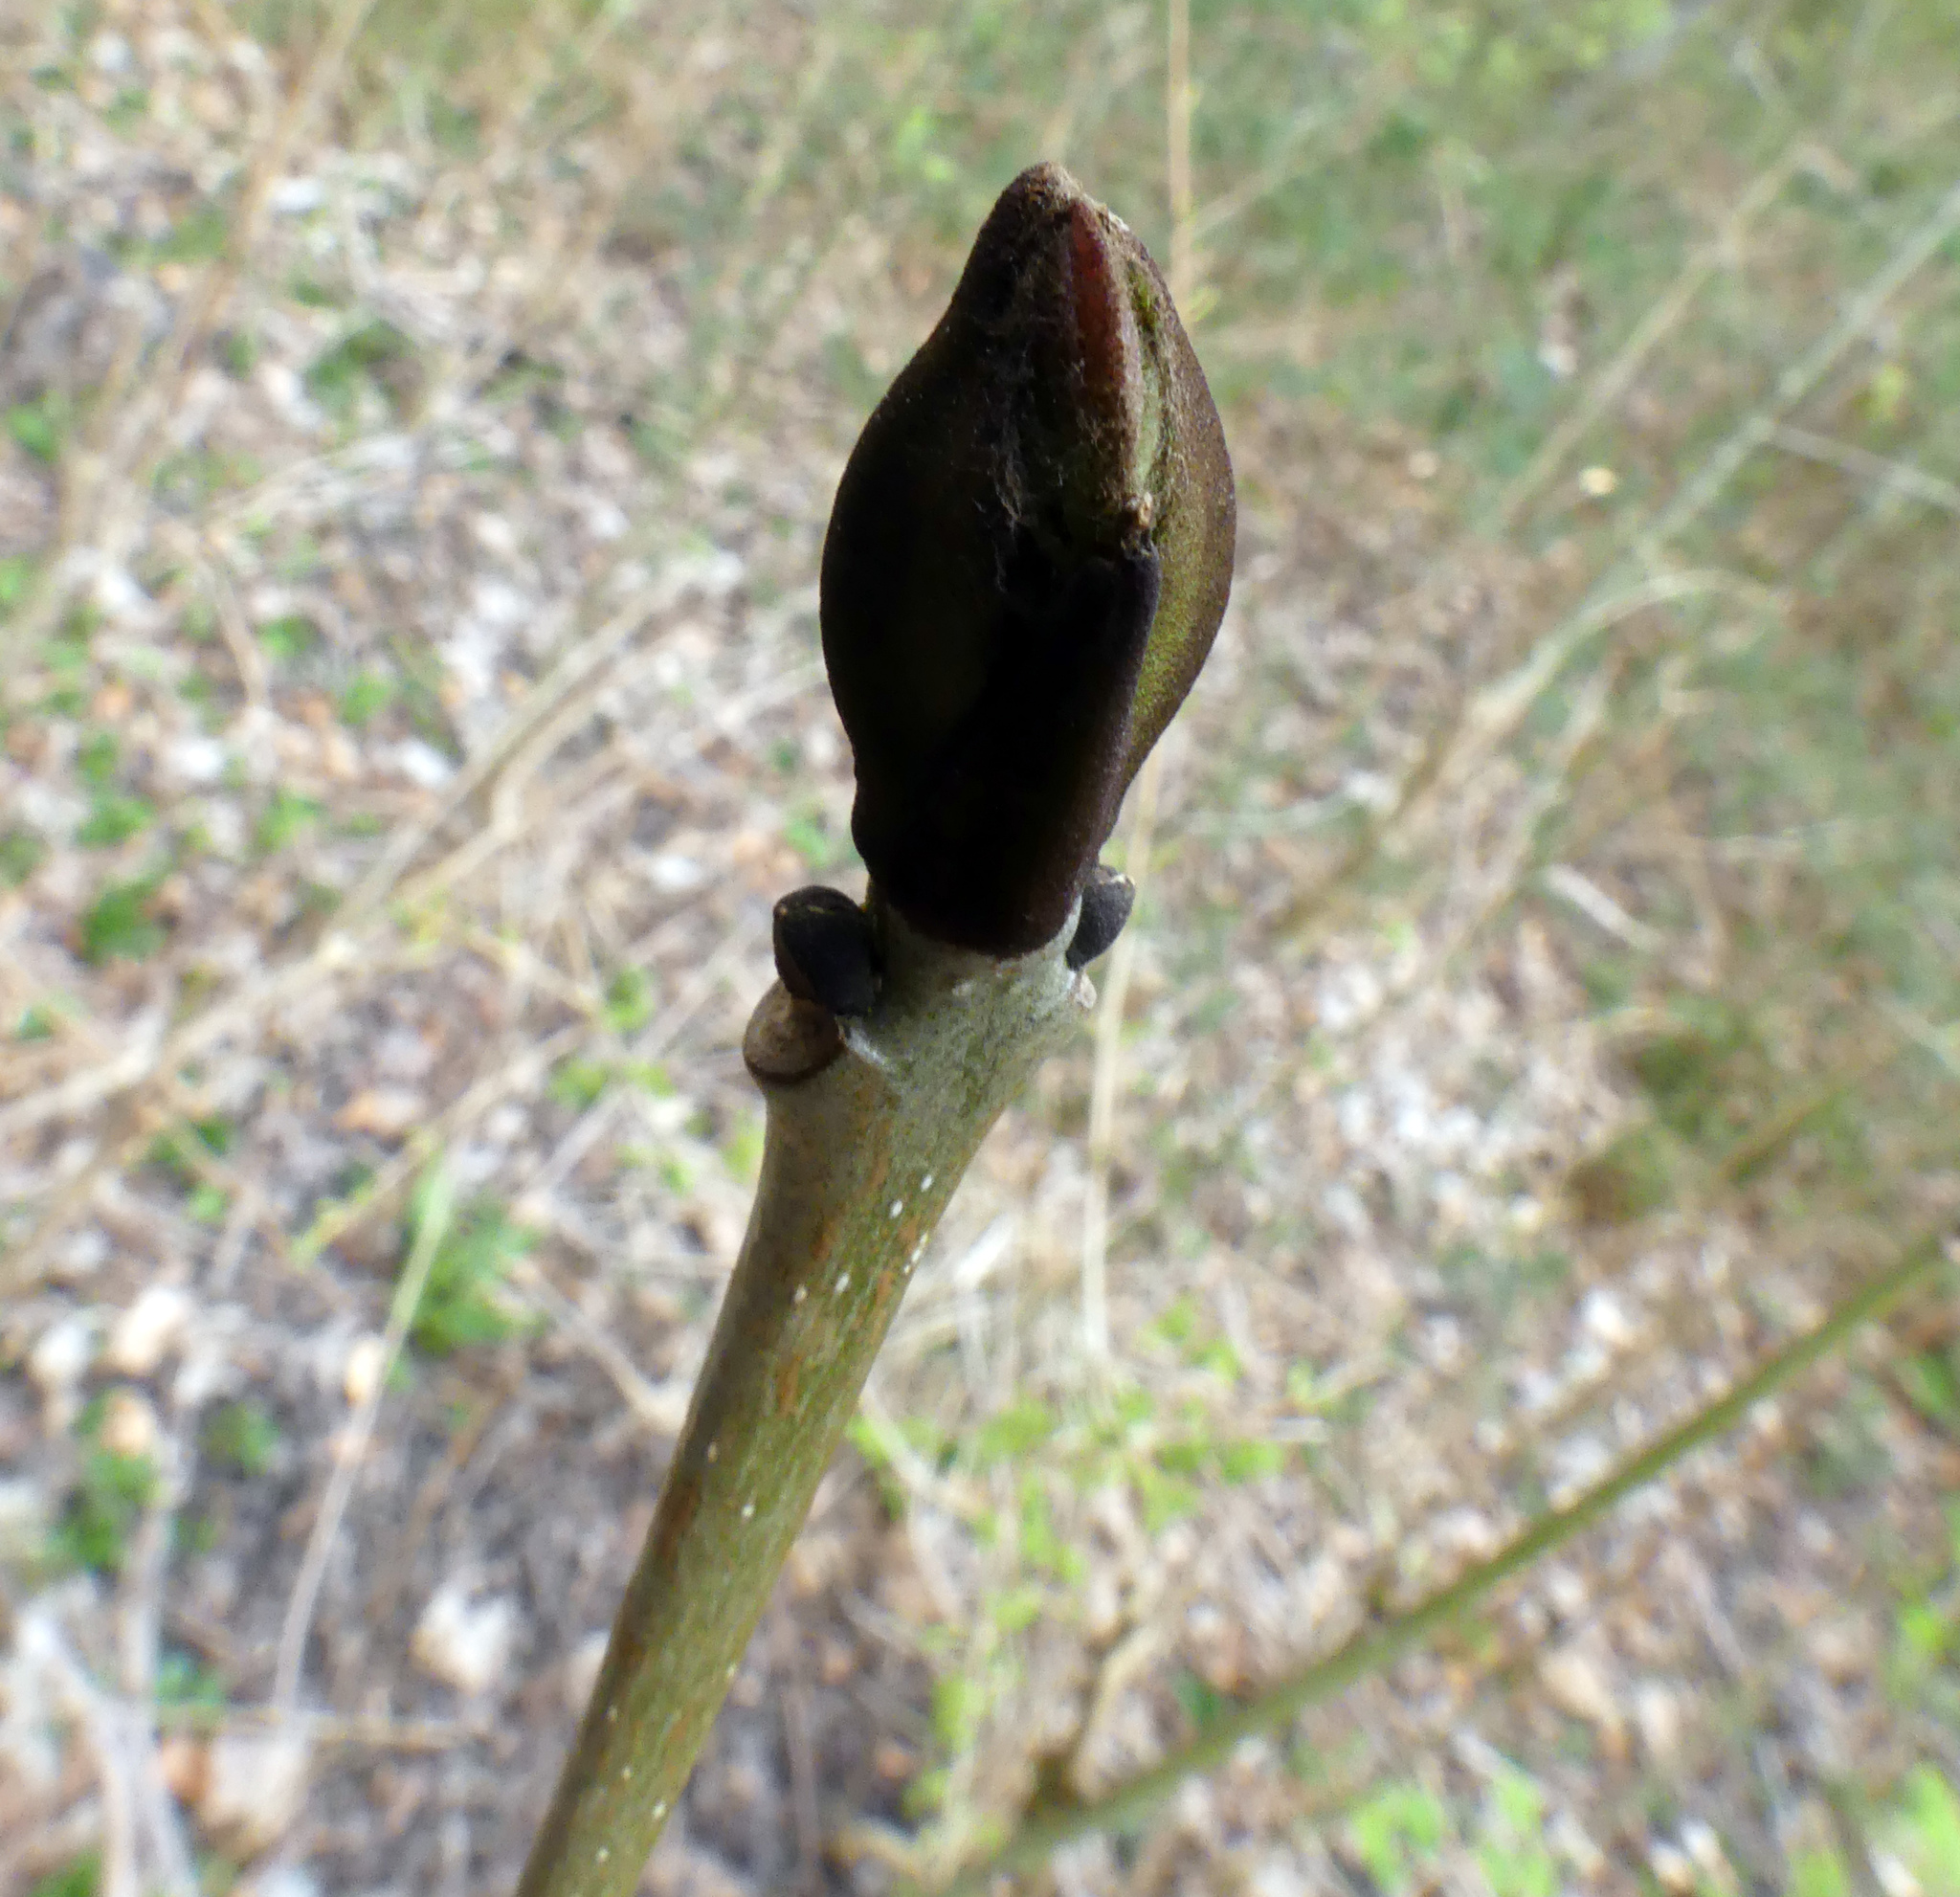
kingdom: Plantae
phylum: Tracheophyta
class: Magnoliopsida
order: Lamiales
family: Oleaceae
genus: Fraxinus
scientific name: Fraxinus excelsior
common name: European ash
